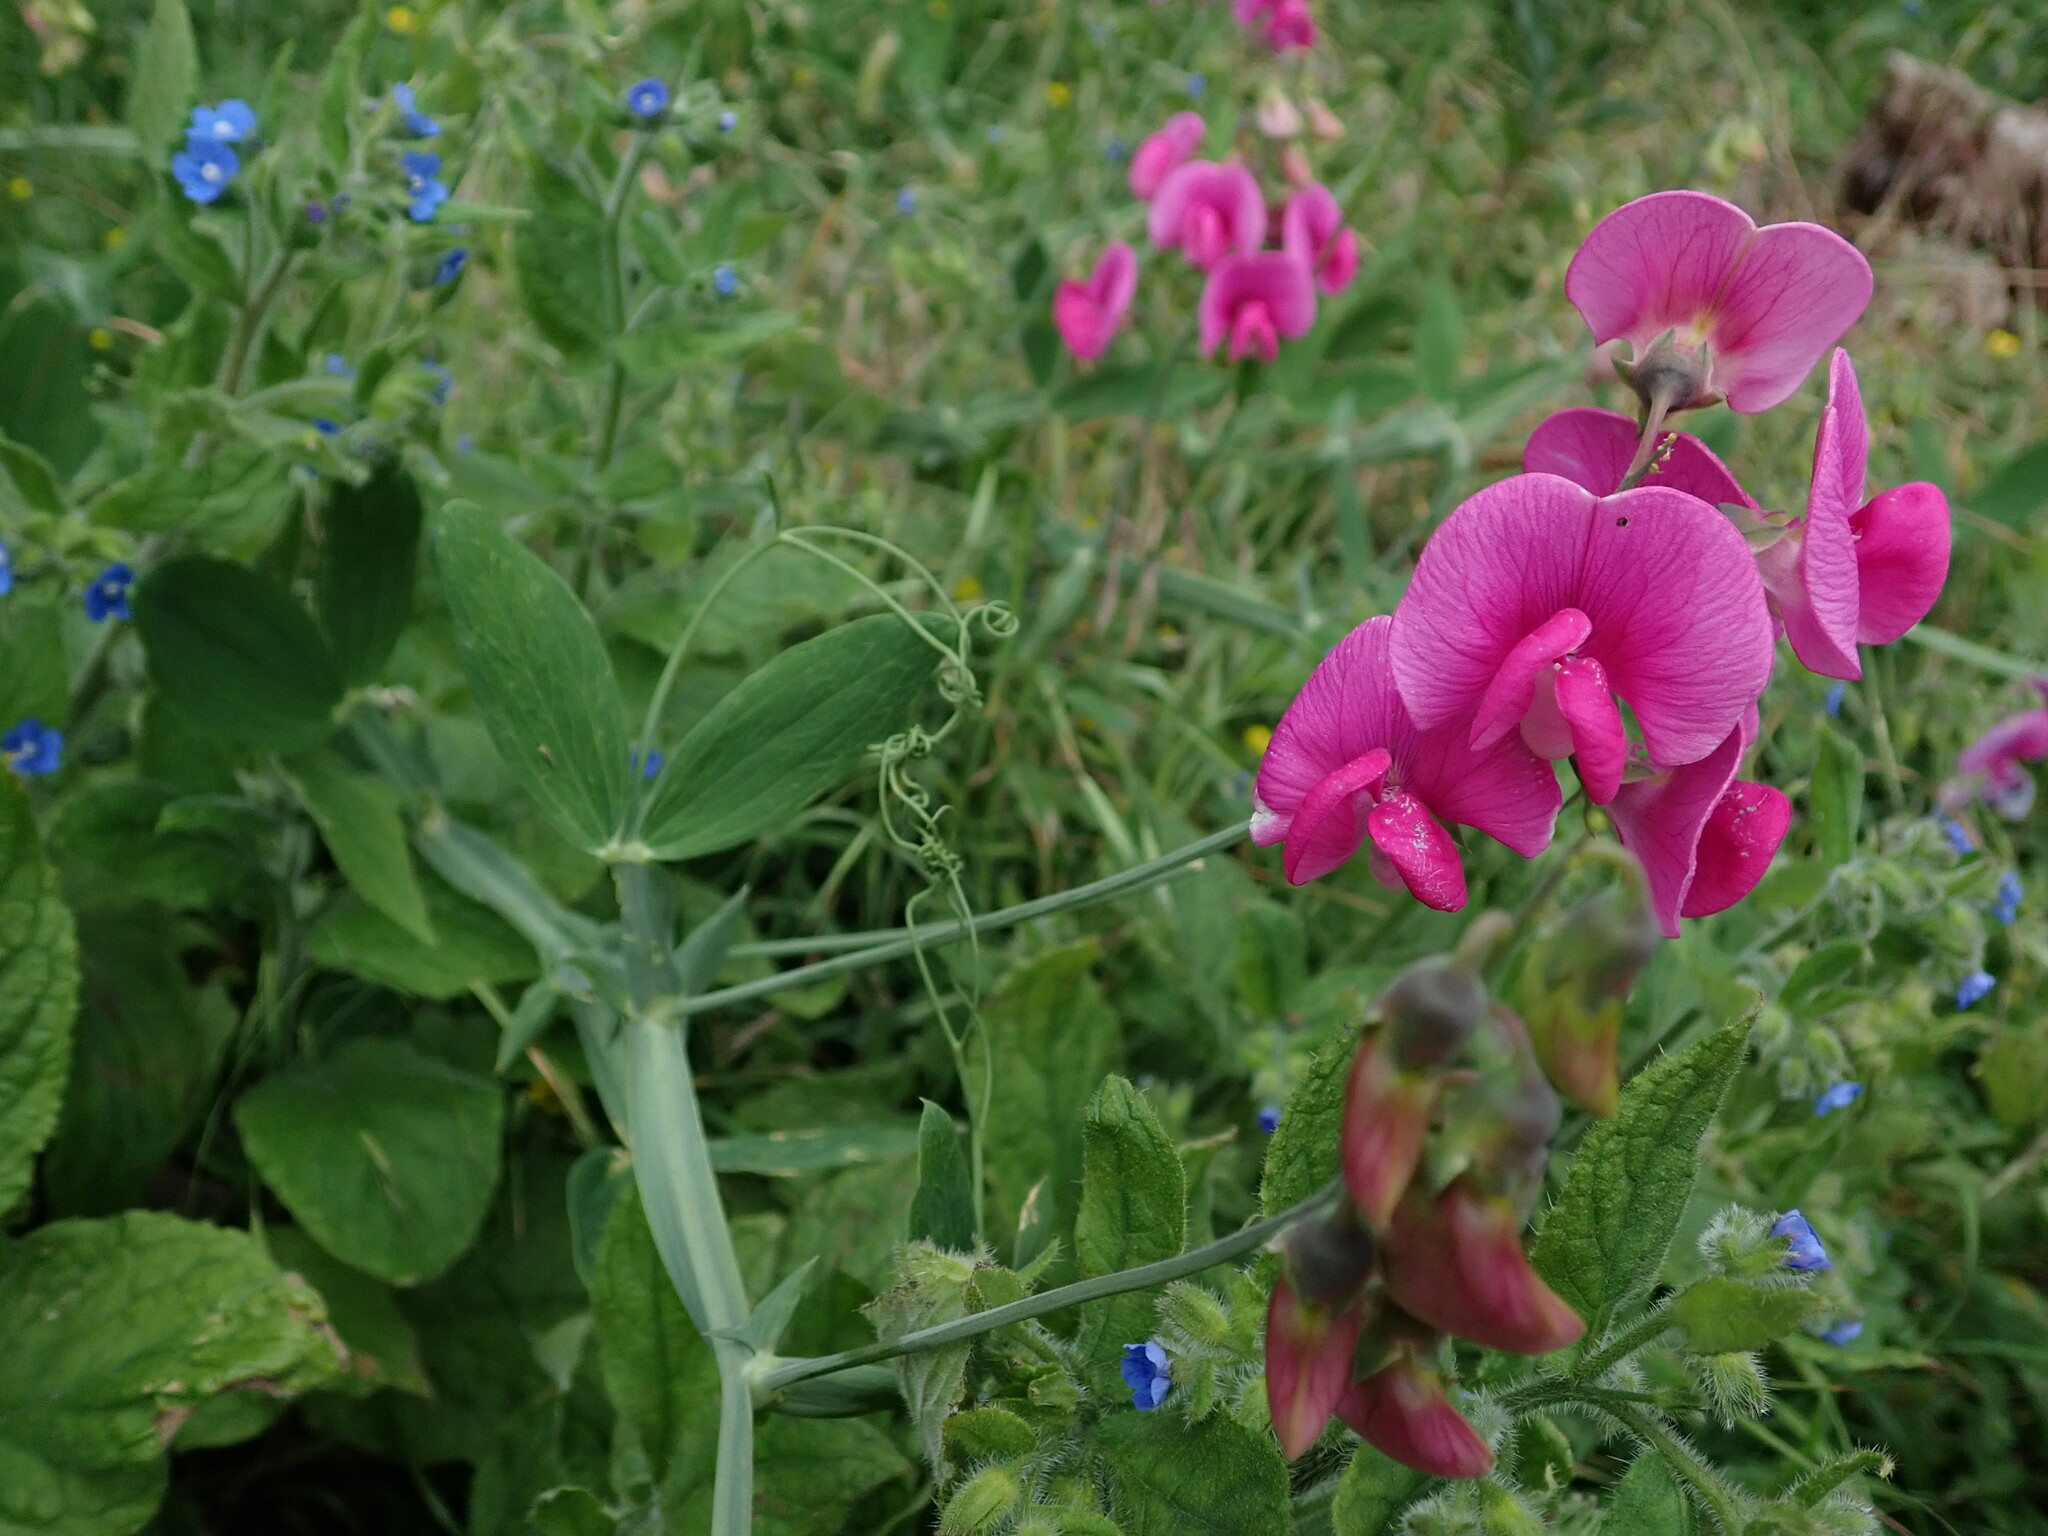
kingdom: Plantae
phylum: Tracheophyta
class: Magnoliopsida
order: Fabales
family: Fabaceae
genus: Lathyrus
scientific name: Lathyrus latifolius
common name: Perennial pea
